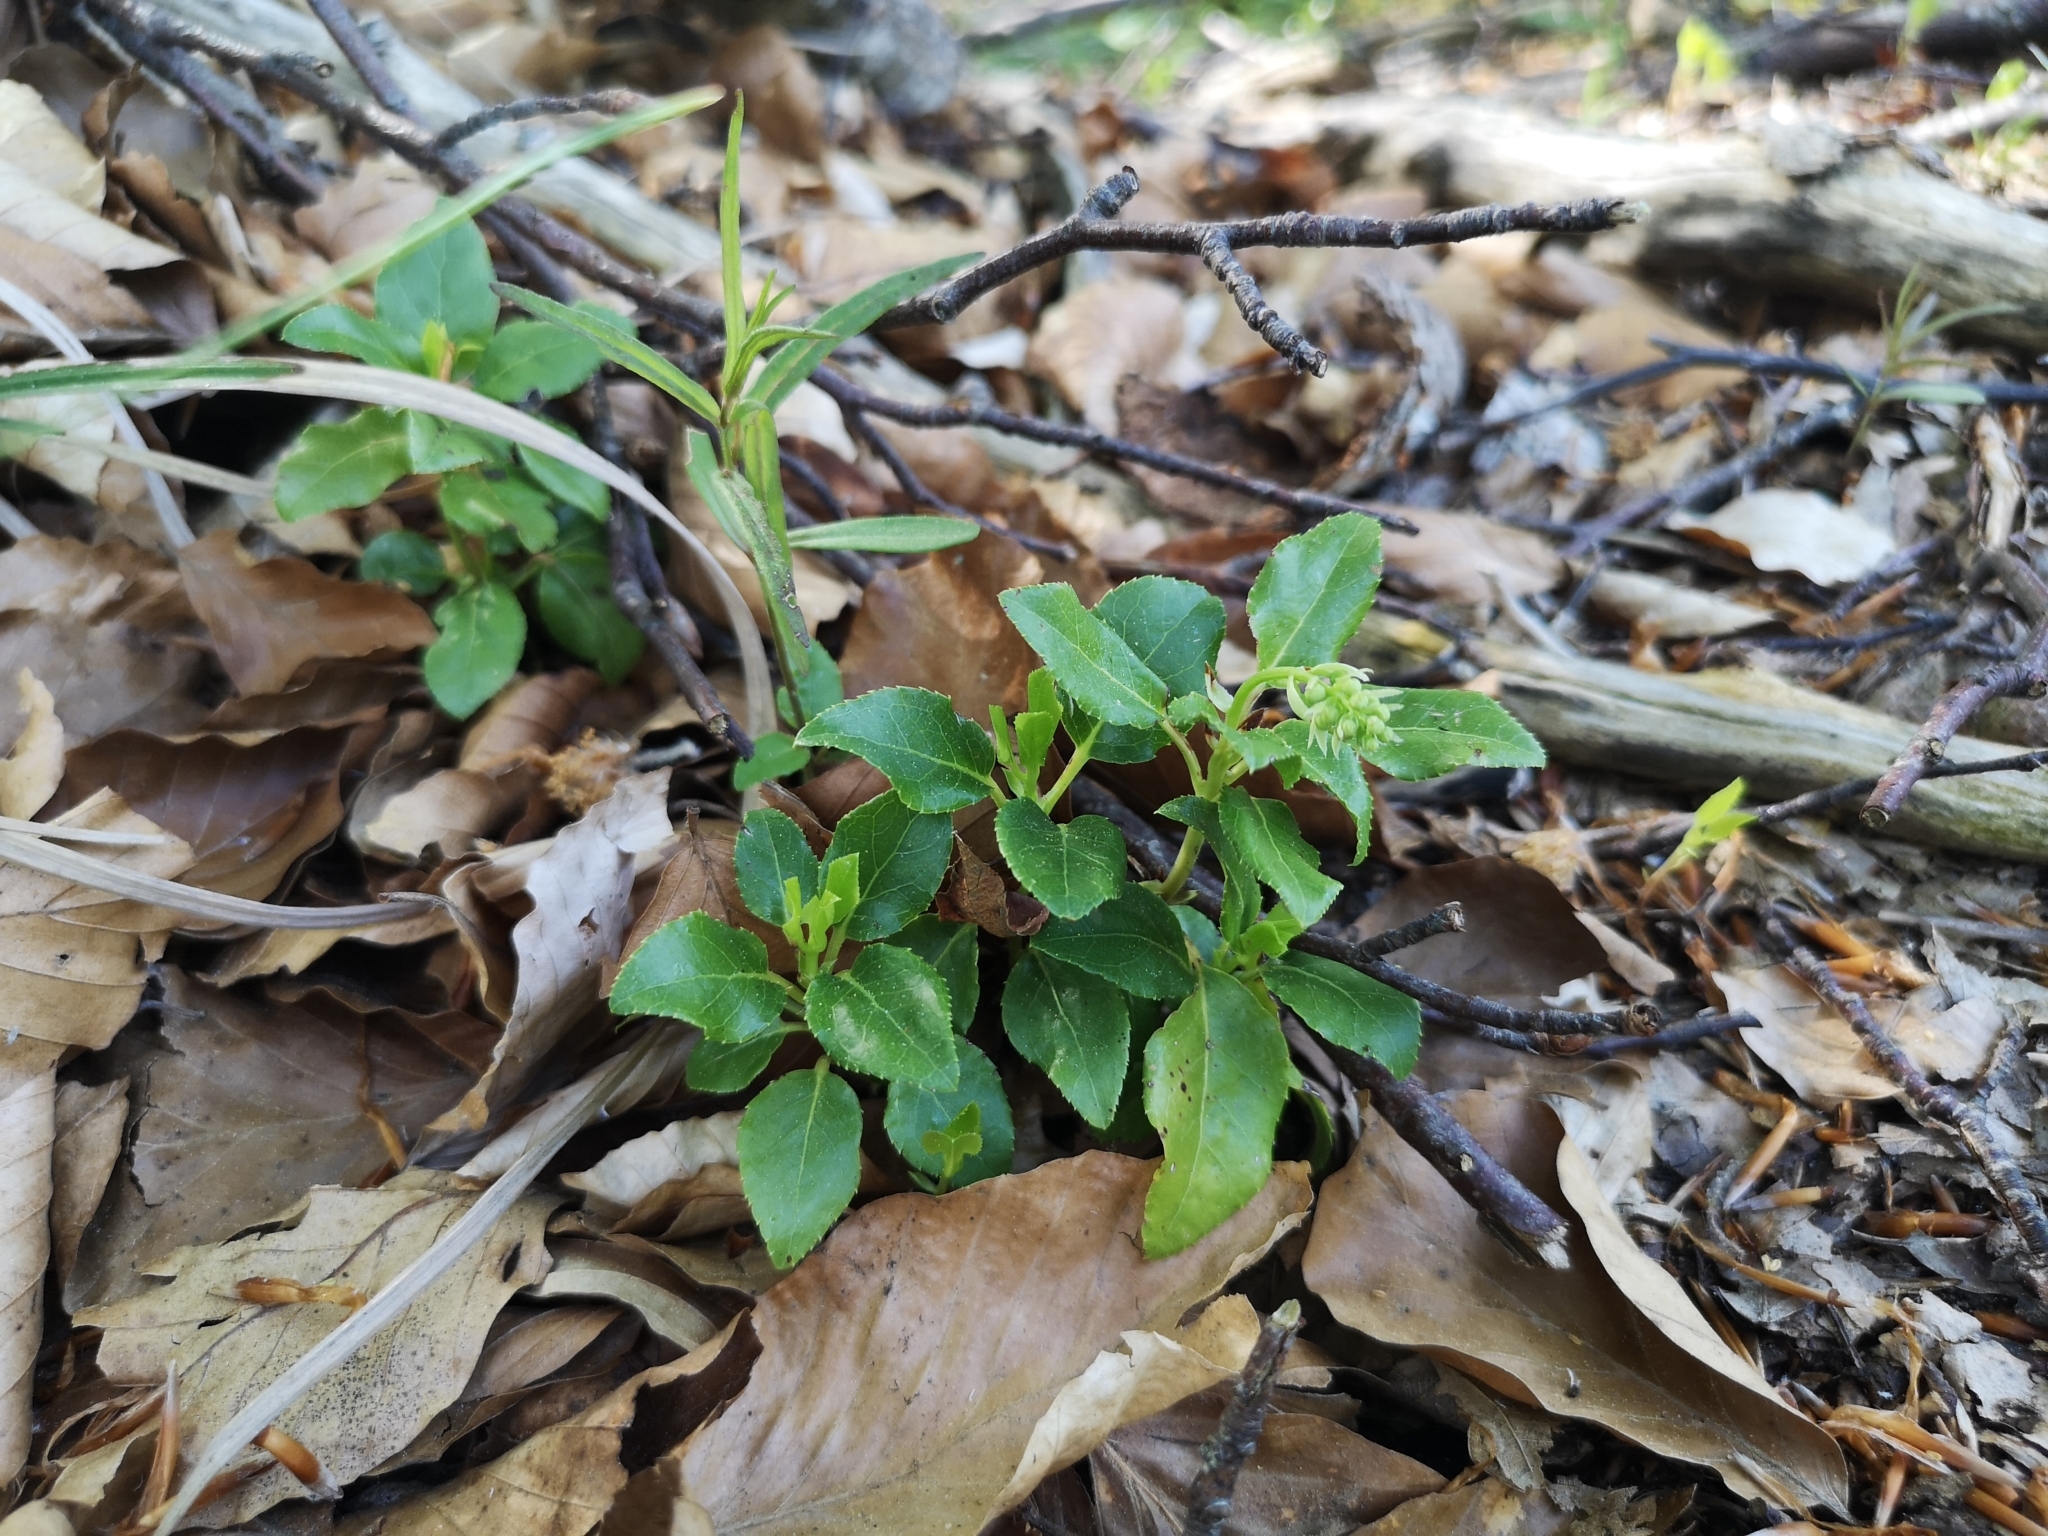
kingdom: Plantae
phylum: Tracheophyta
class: Magnoliopsida
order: Ericales
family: Ericaceae
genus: Orthilia
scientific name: Orthilia secunda
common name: One-sided orthilia
